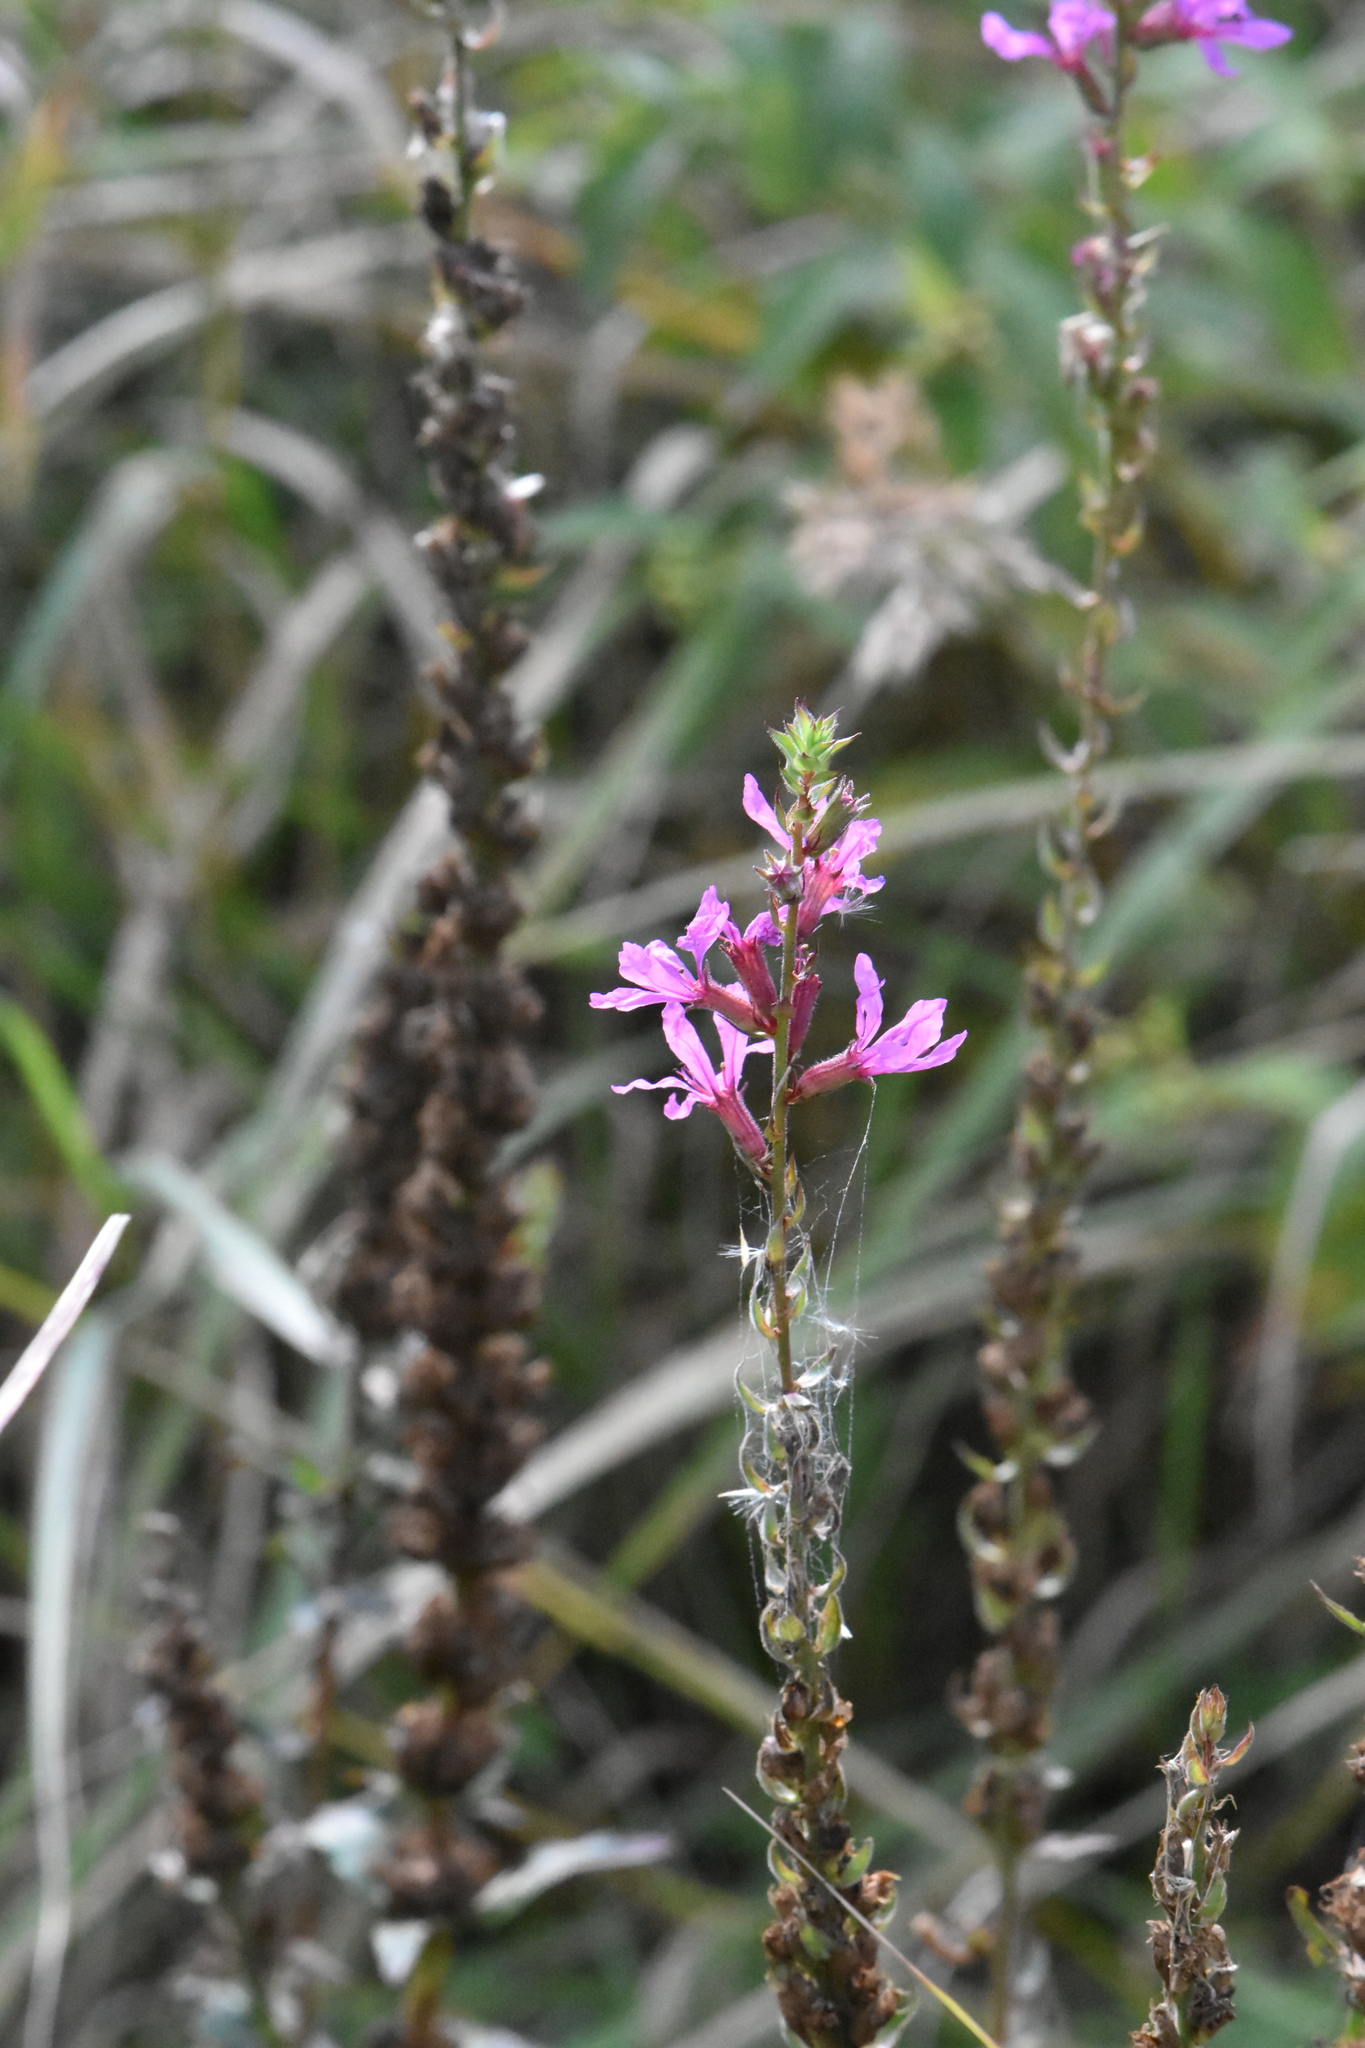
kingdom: Plantae
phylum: Tracheophyta
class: Magnoliopsida
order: Myrtales
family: Lythraceae
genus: Lythrum
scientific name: Lythrum salicaria
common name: Purple loosestrife
